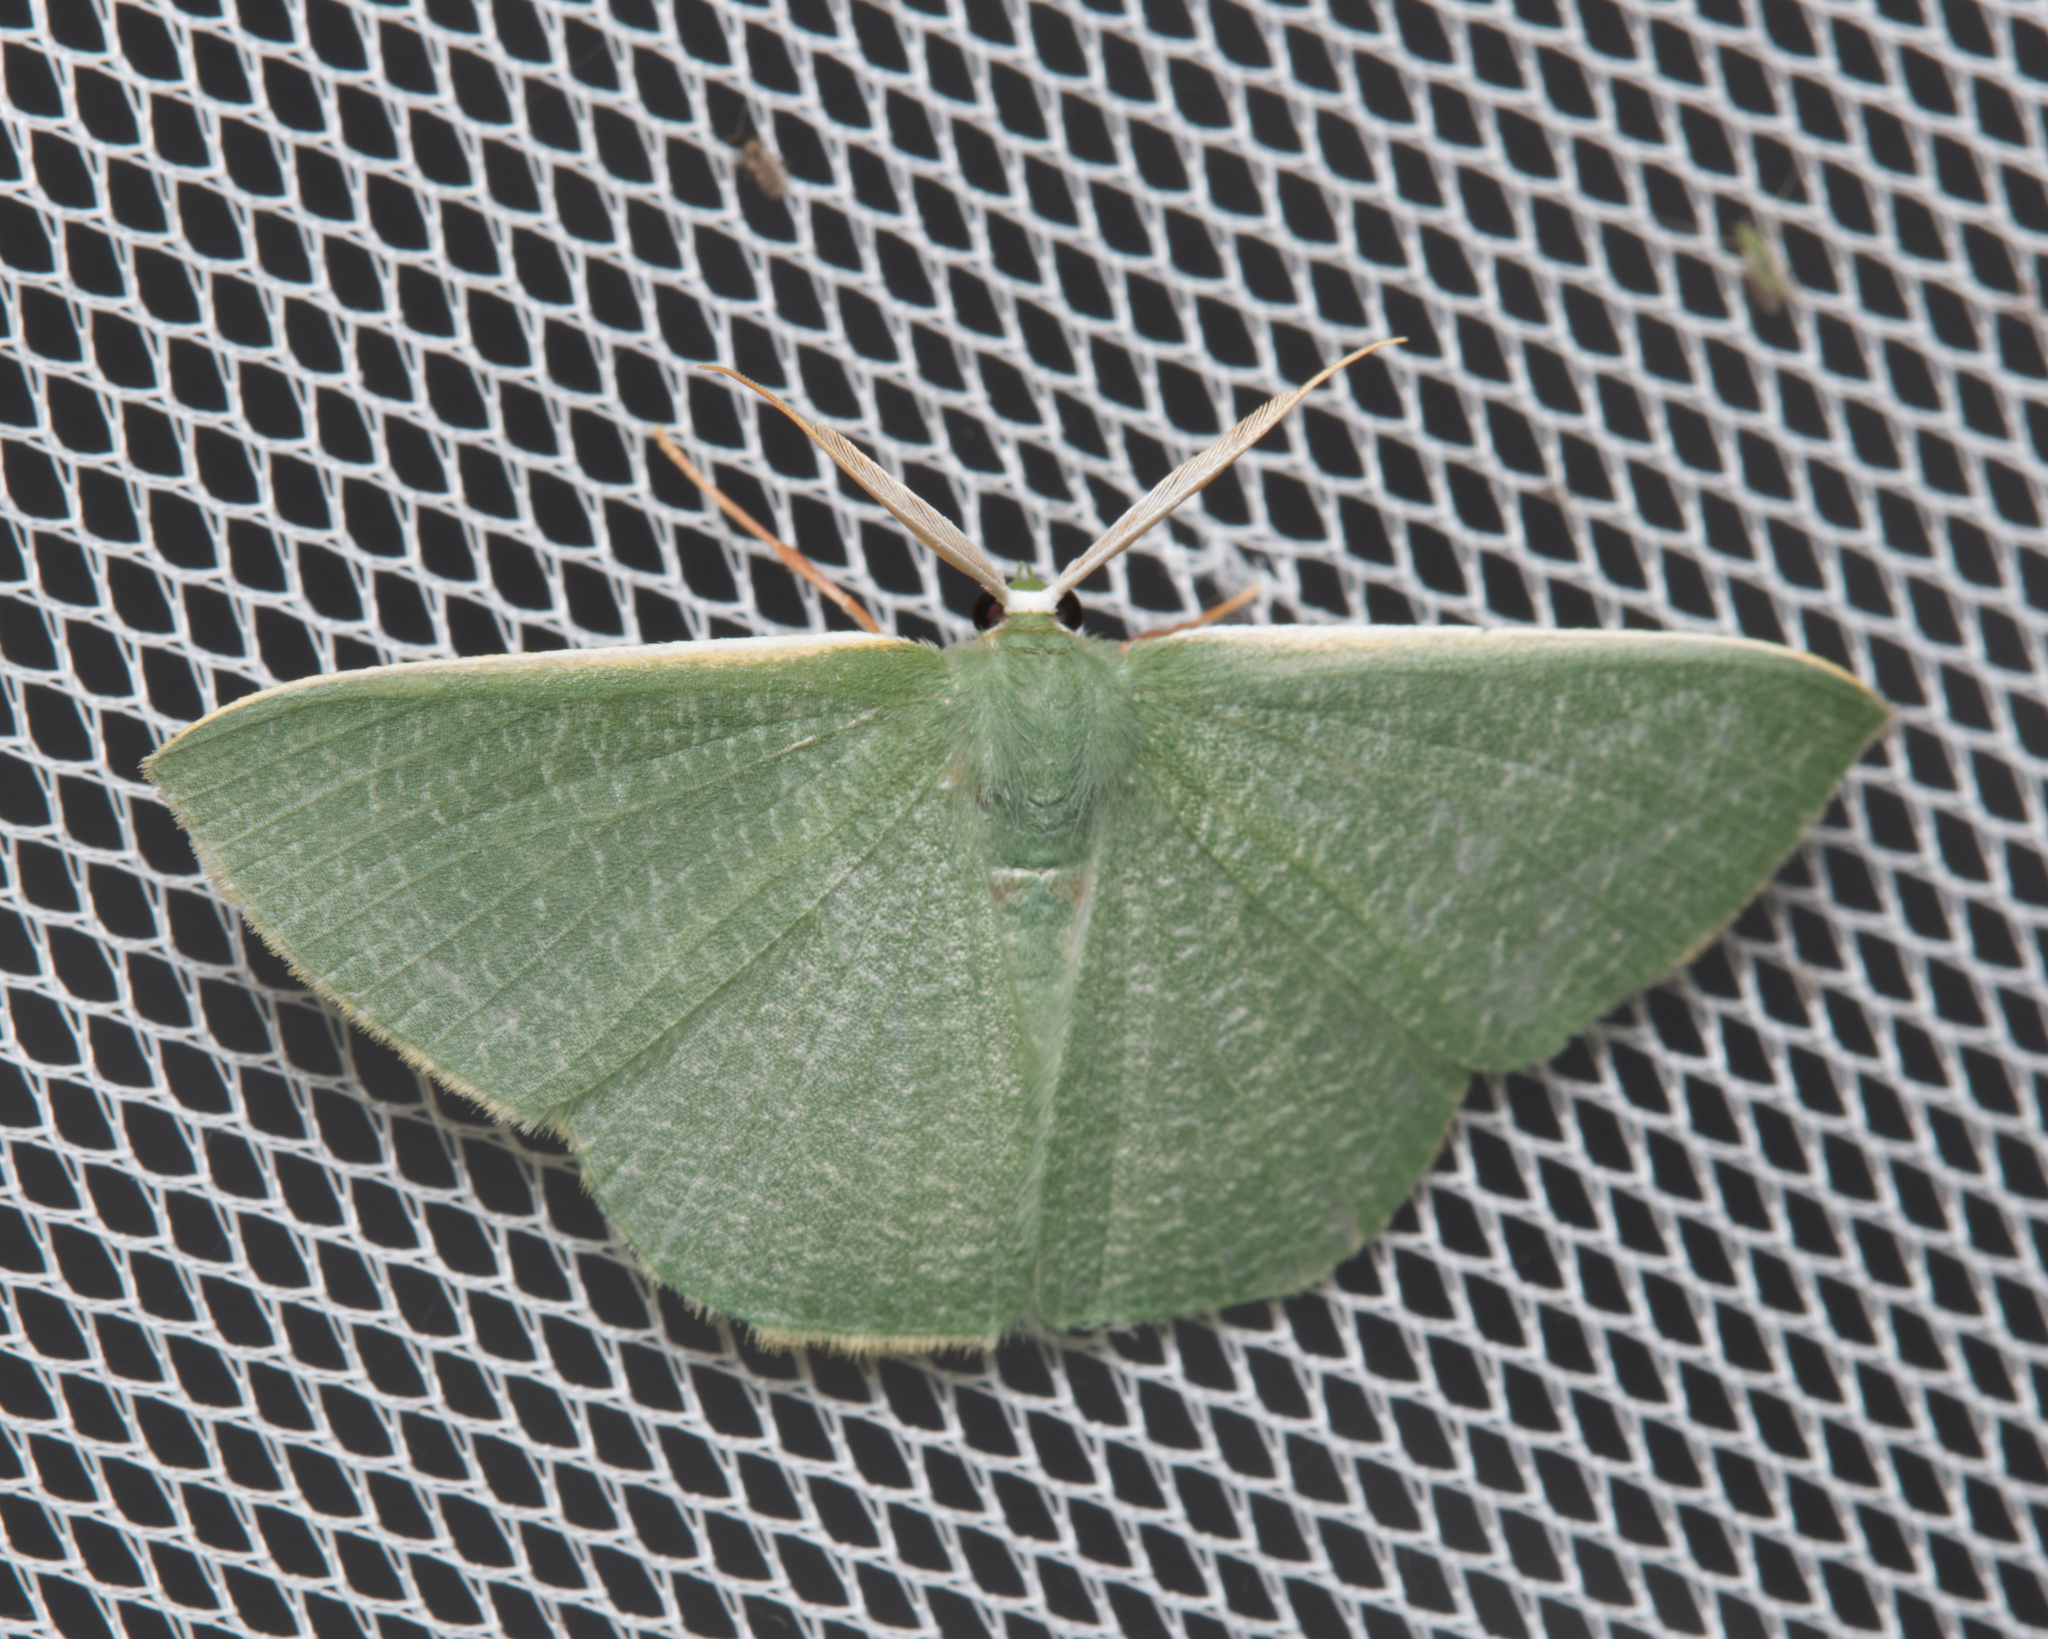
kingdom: Animalia
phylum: Arthropoda
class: Insecta
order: Lepidoptera
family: Geometridae
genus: Prasinocyma
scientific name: Prasinocyma albicosta
